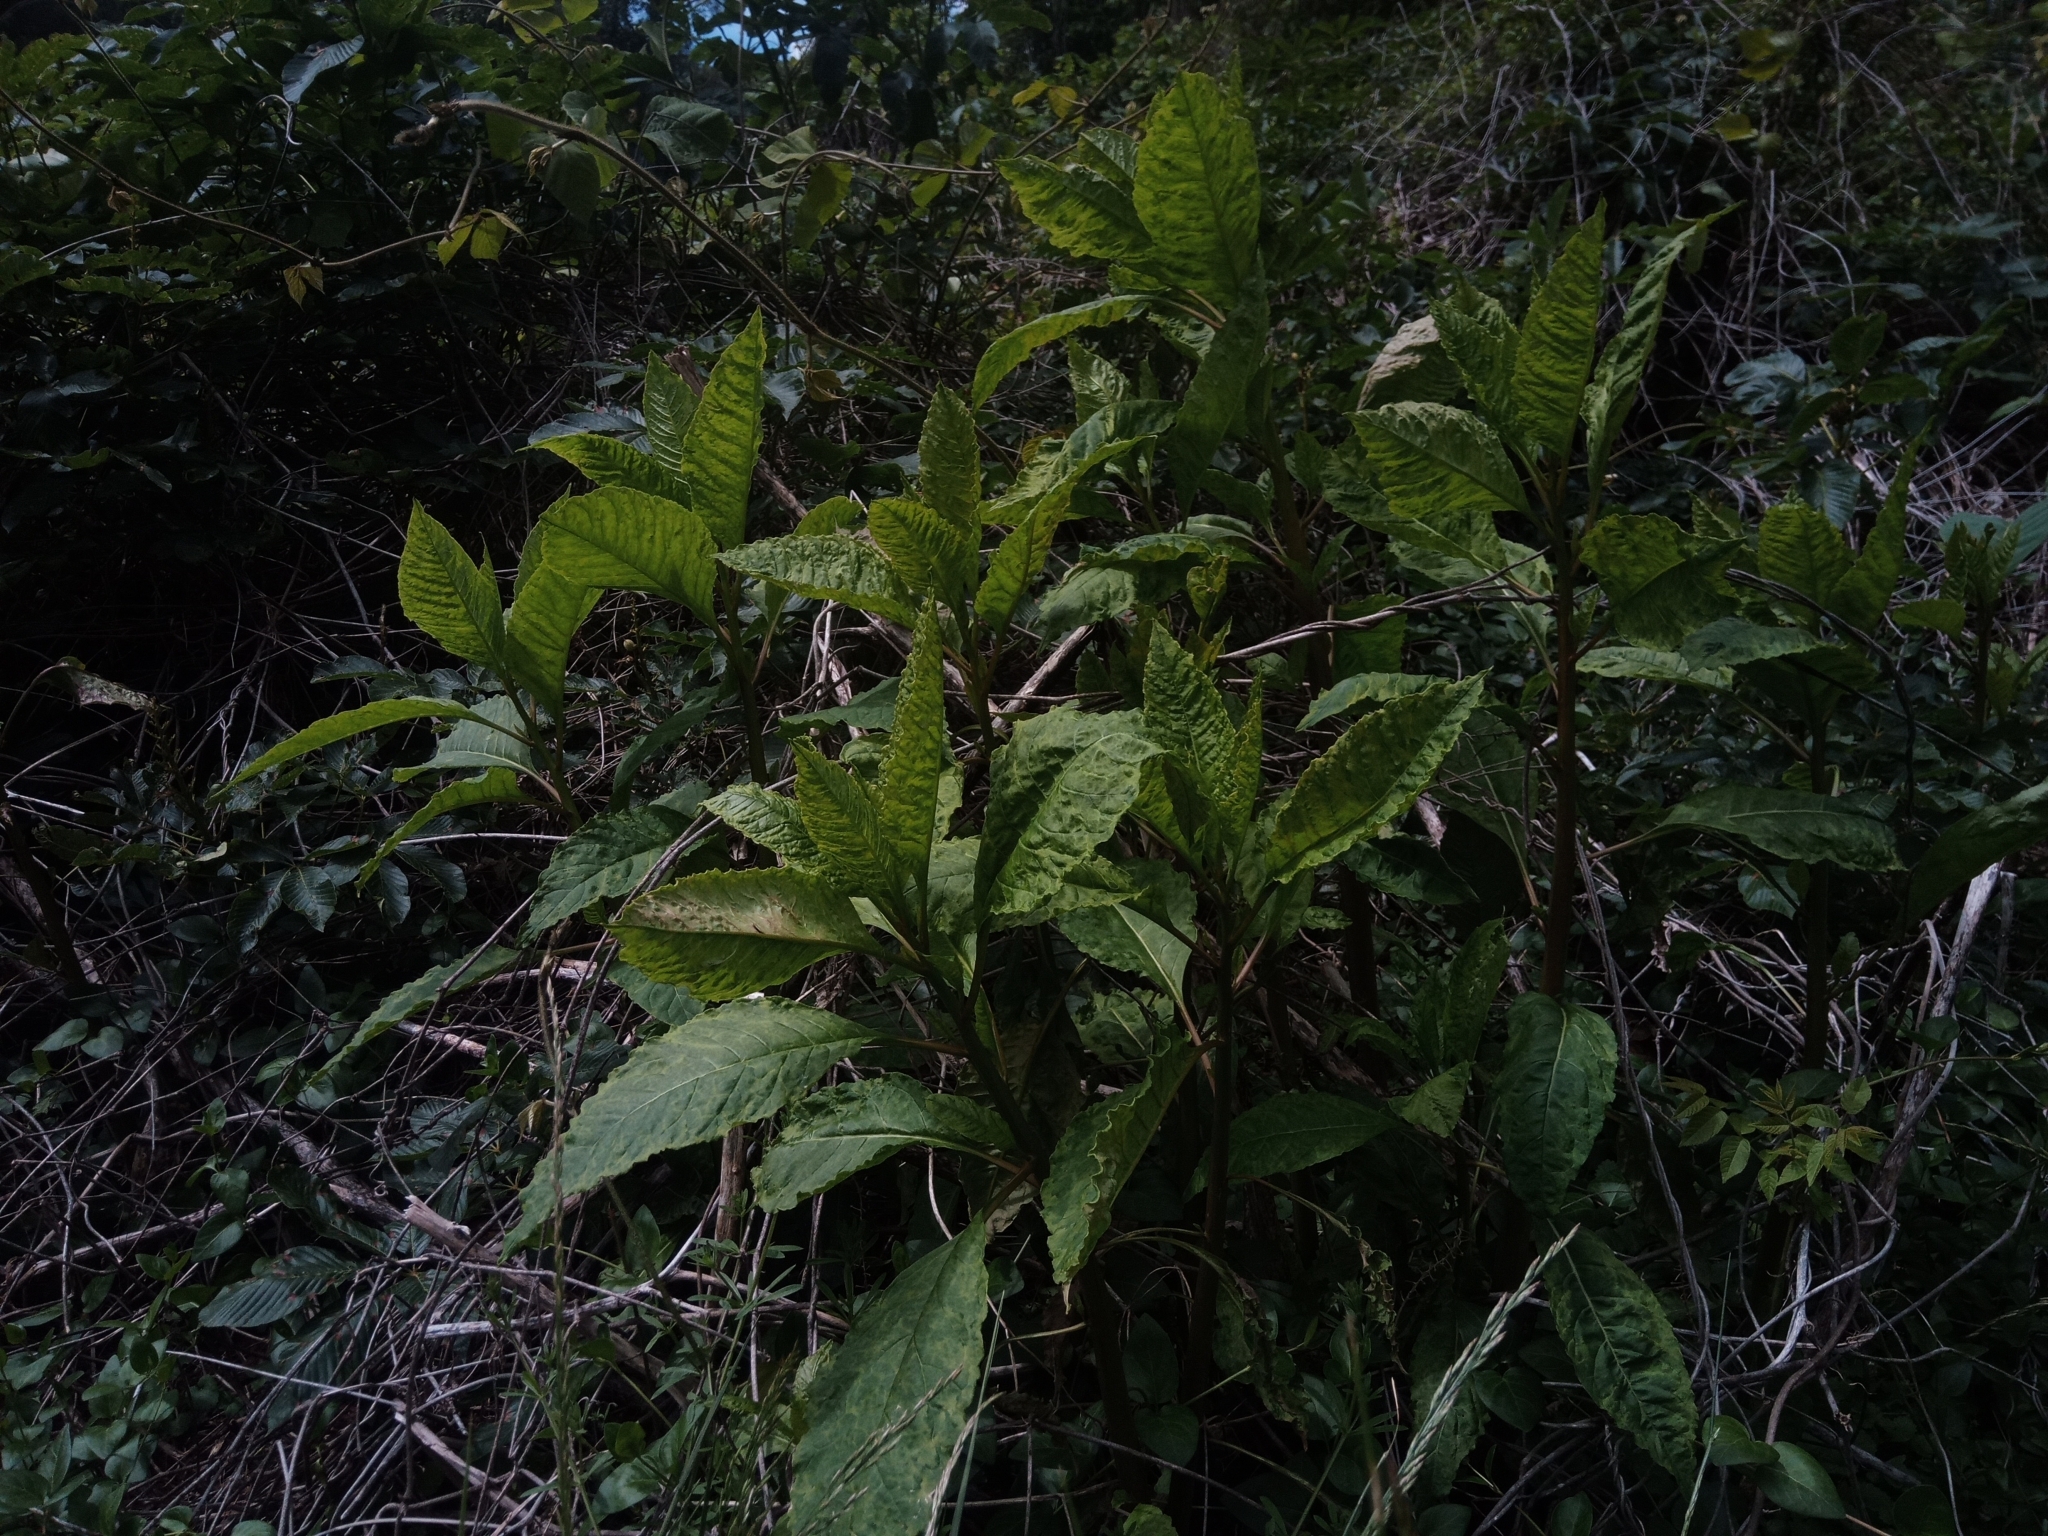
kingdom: Plantae
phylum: Tracheophyta
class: Magnoliopsida
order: Caryophyllales
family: Phytolaccaceae
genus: Phytolacca
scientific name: Phytolacca americana
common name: American pokeweed
